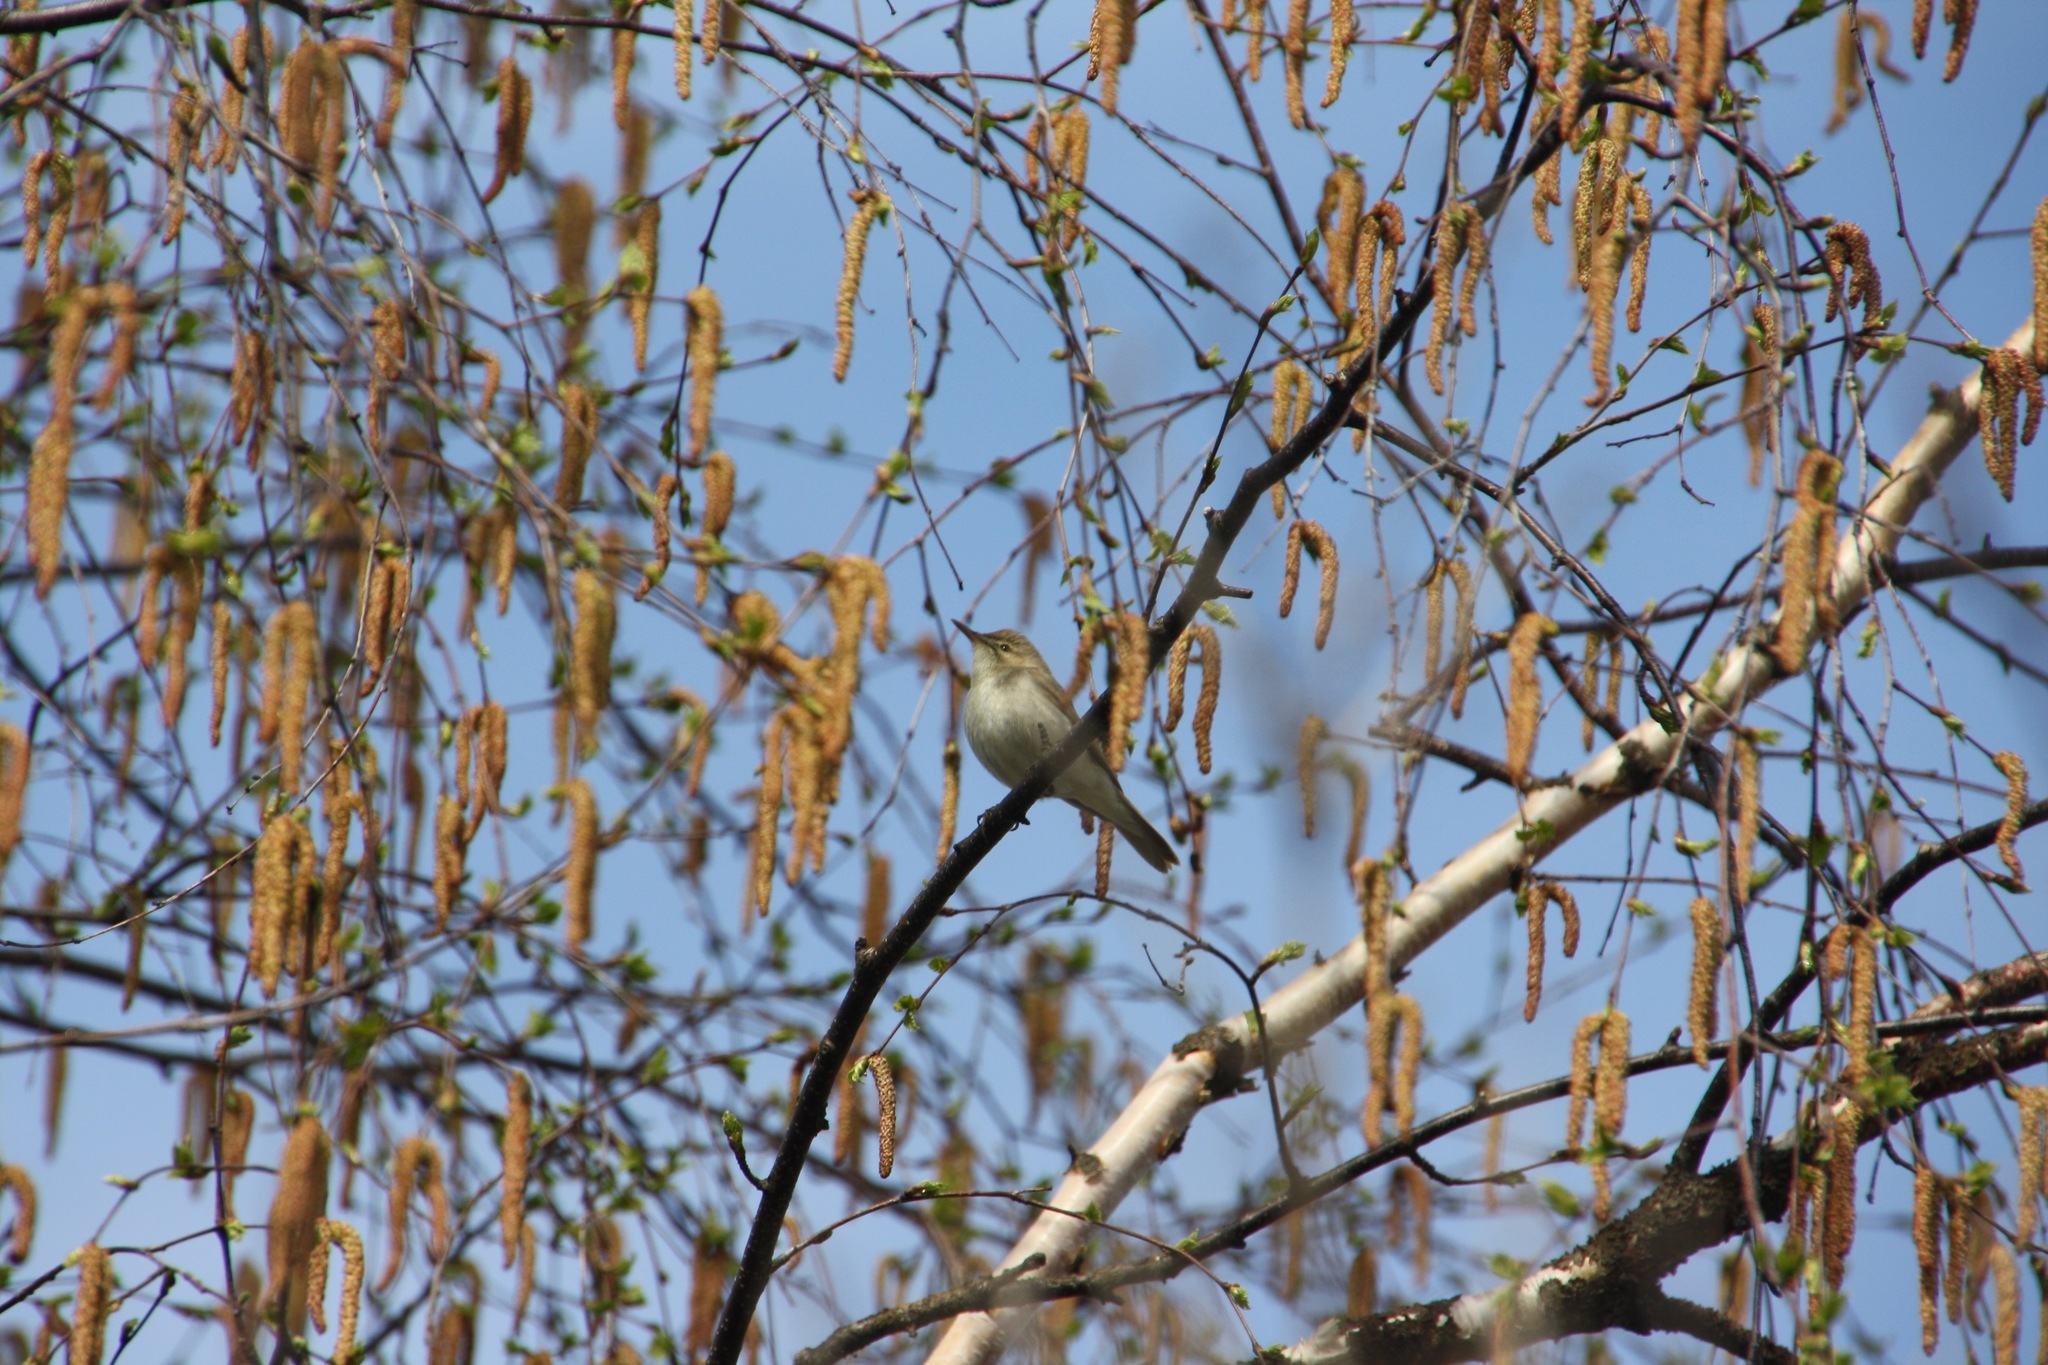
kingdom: Animalia
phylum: Chordata
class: Aves
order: Passeriformes
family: Phylloscopidae
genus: Phylloscopus
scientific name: Phylloscopus collybita
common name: Common chiffchaff
